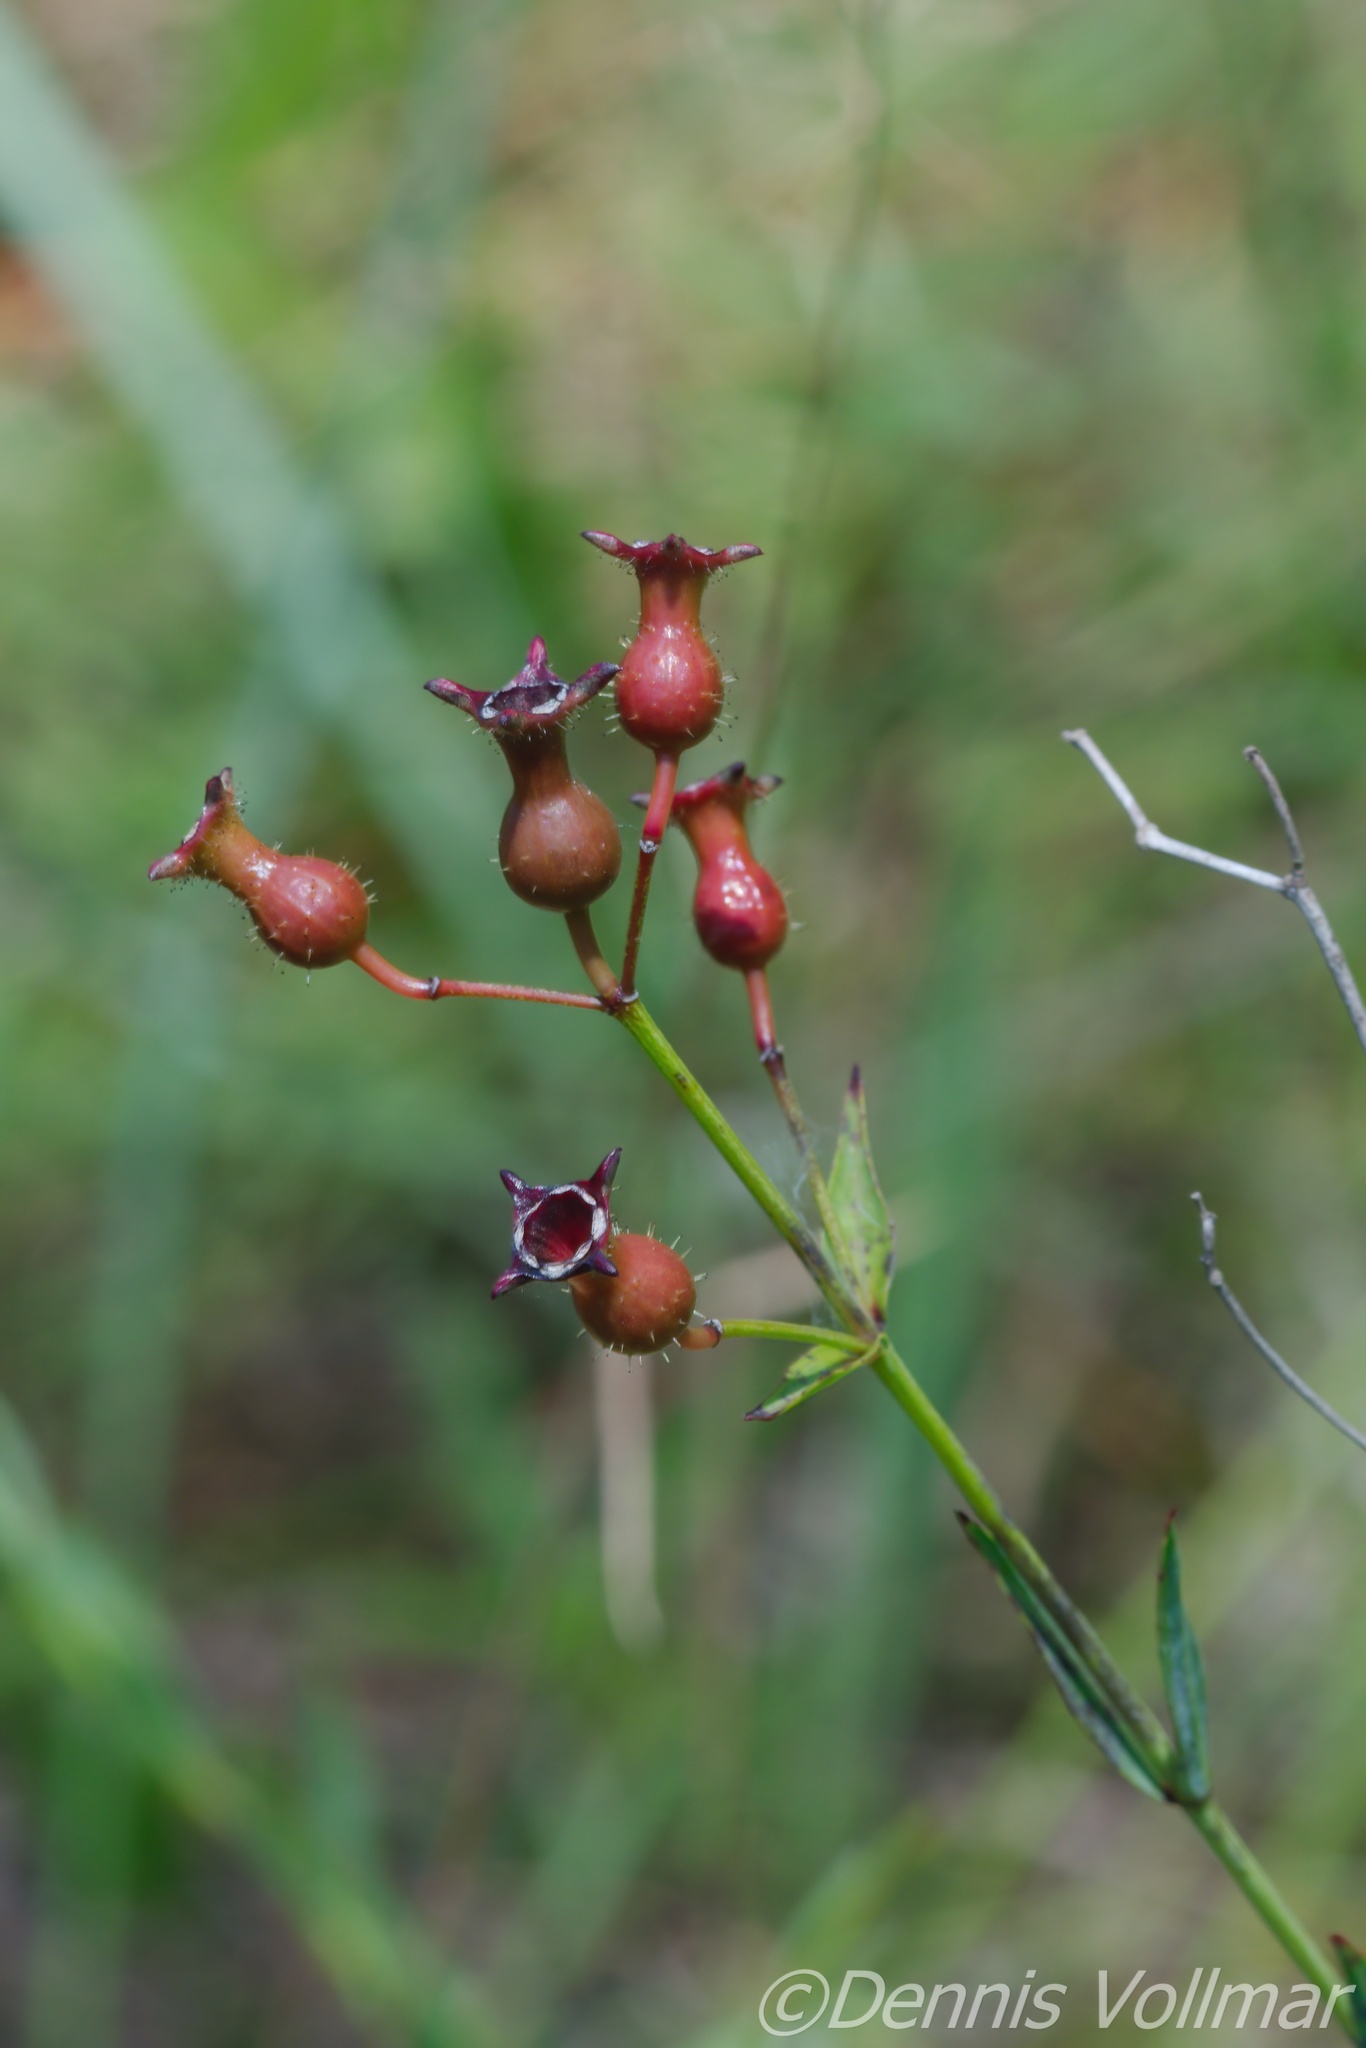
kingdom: Plantae
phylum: Tracheophyta
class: Magnoliopsida
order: Myrtales
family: Melastomataceae
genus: Rhexia
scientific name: Rhexia alifanus
